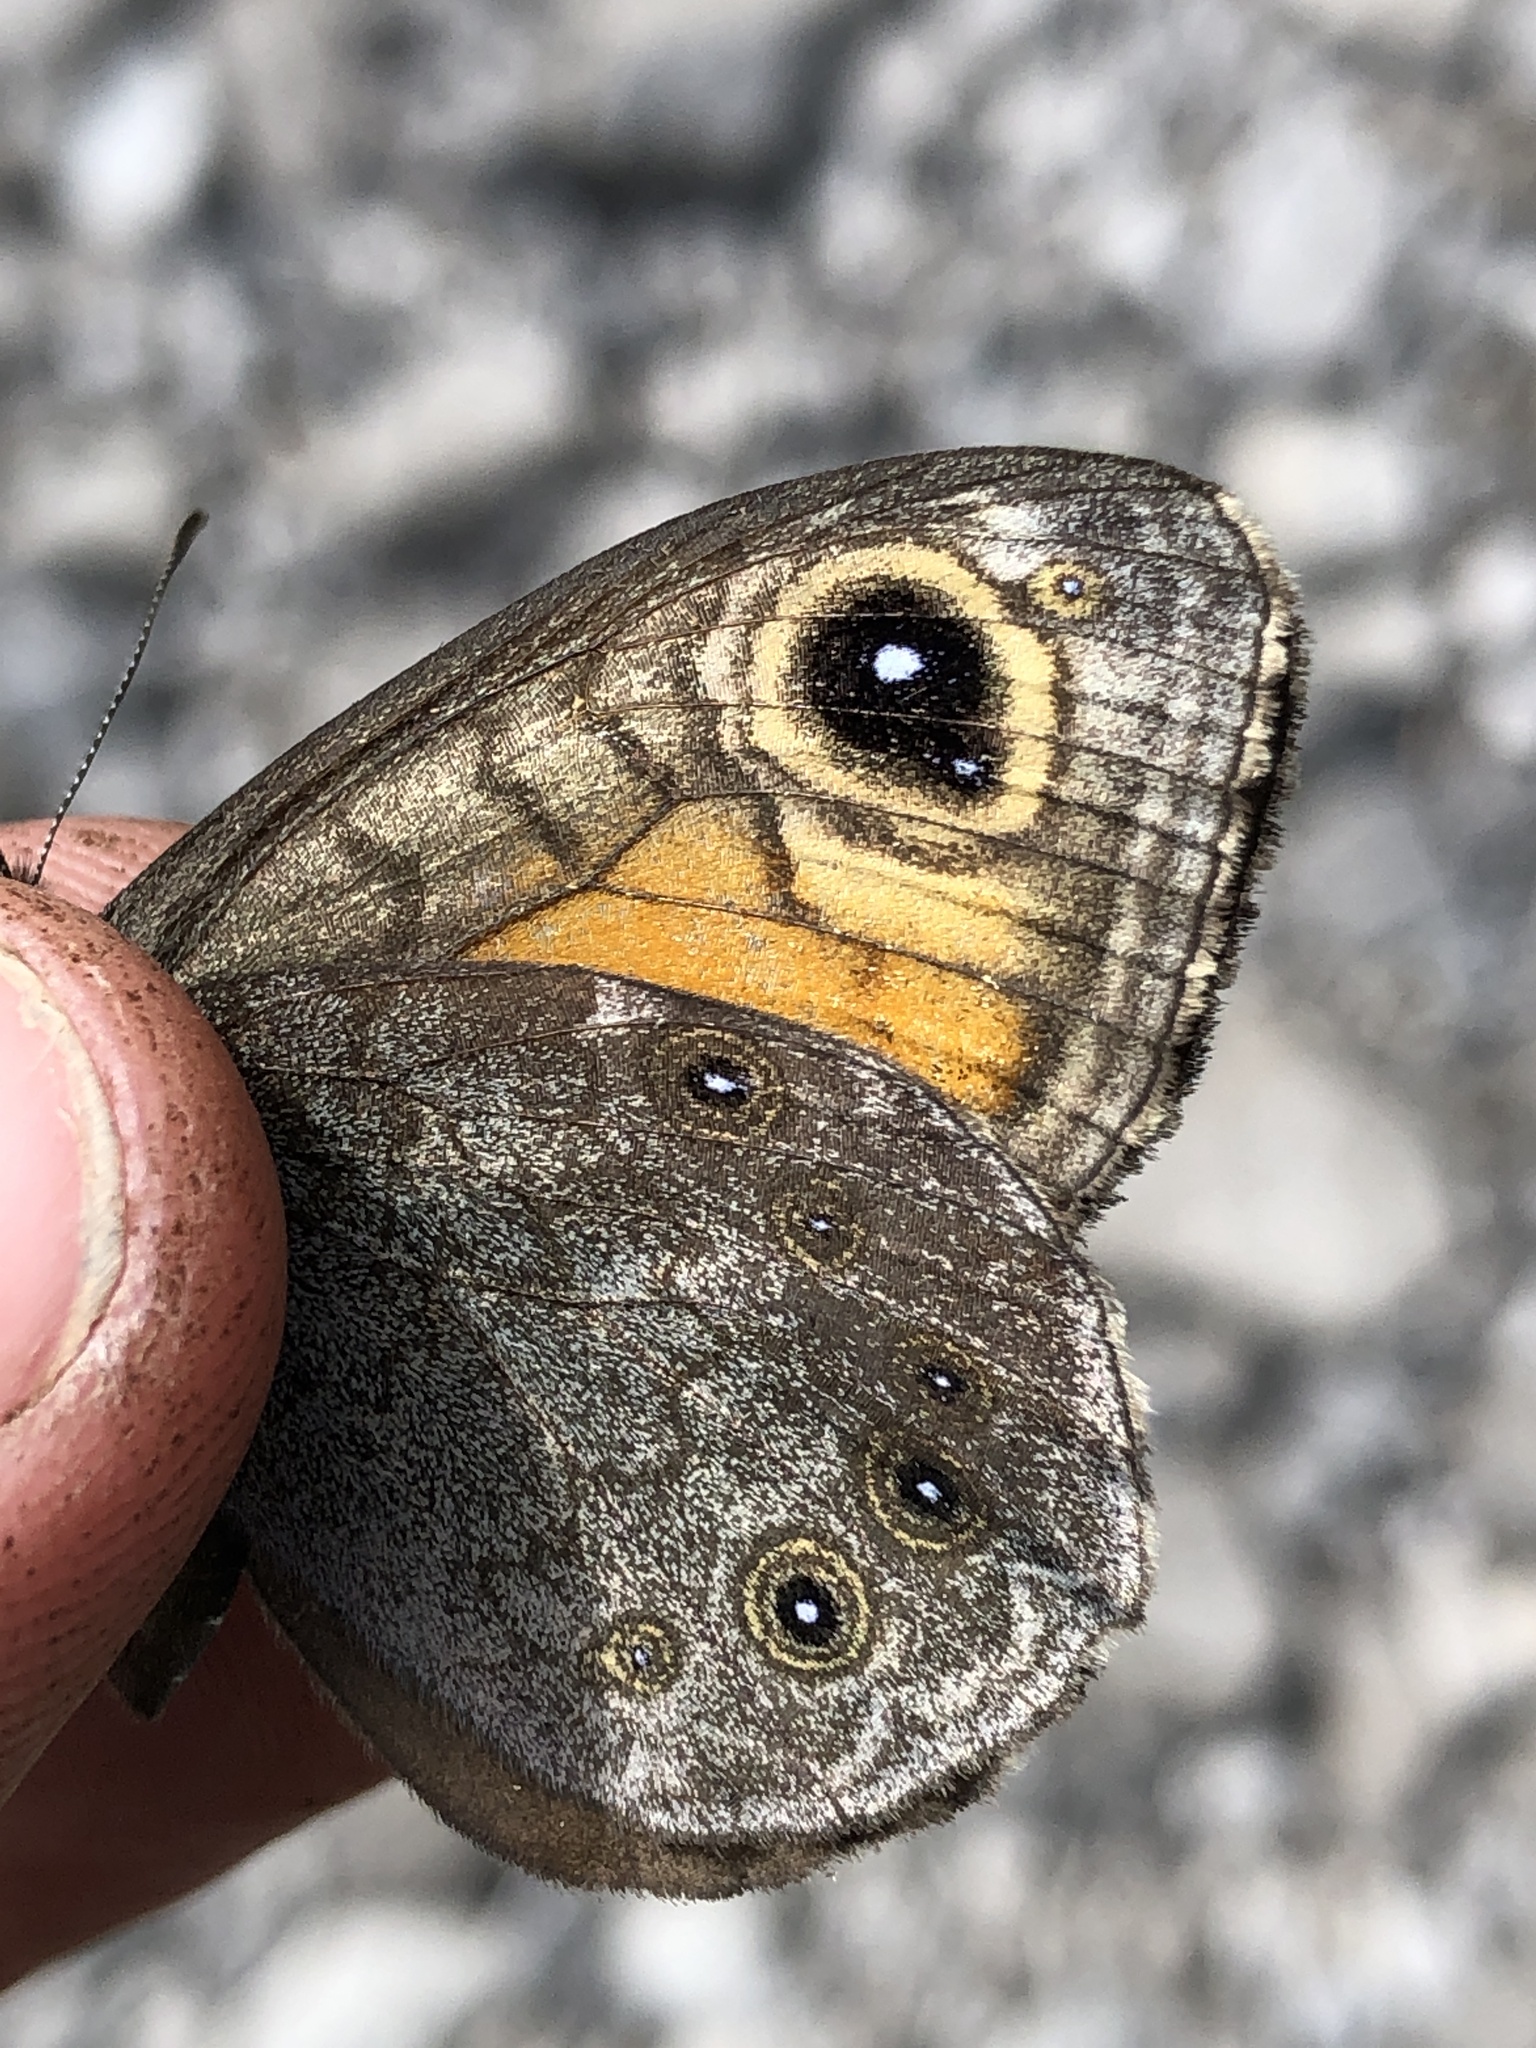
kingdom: Animalia
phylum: Arthropoda
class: Insecta
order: Lepidoptera
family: Nymphalidae
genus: Pararge
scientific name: Pararge Lasiommata maera
